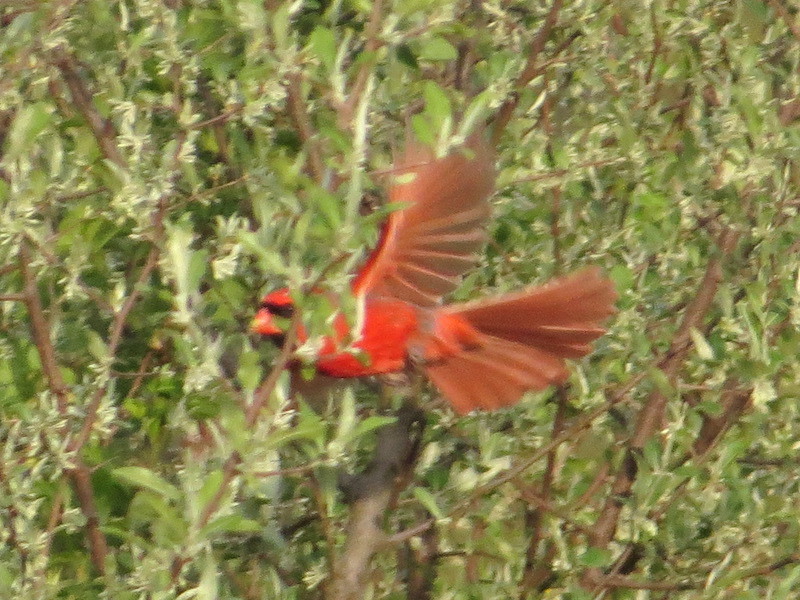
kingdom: Animalia
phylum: Chordata
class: Aves
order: Passeriformes
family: Cardinalidae
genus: Cardinalis
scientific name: Cardinalis cardinalis
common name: Northern cardinal
